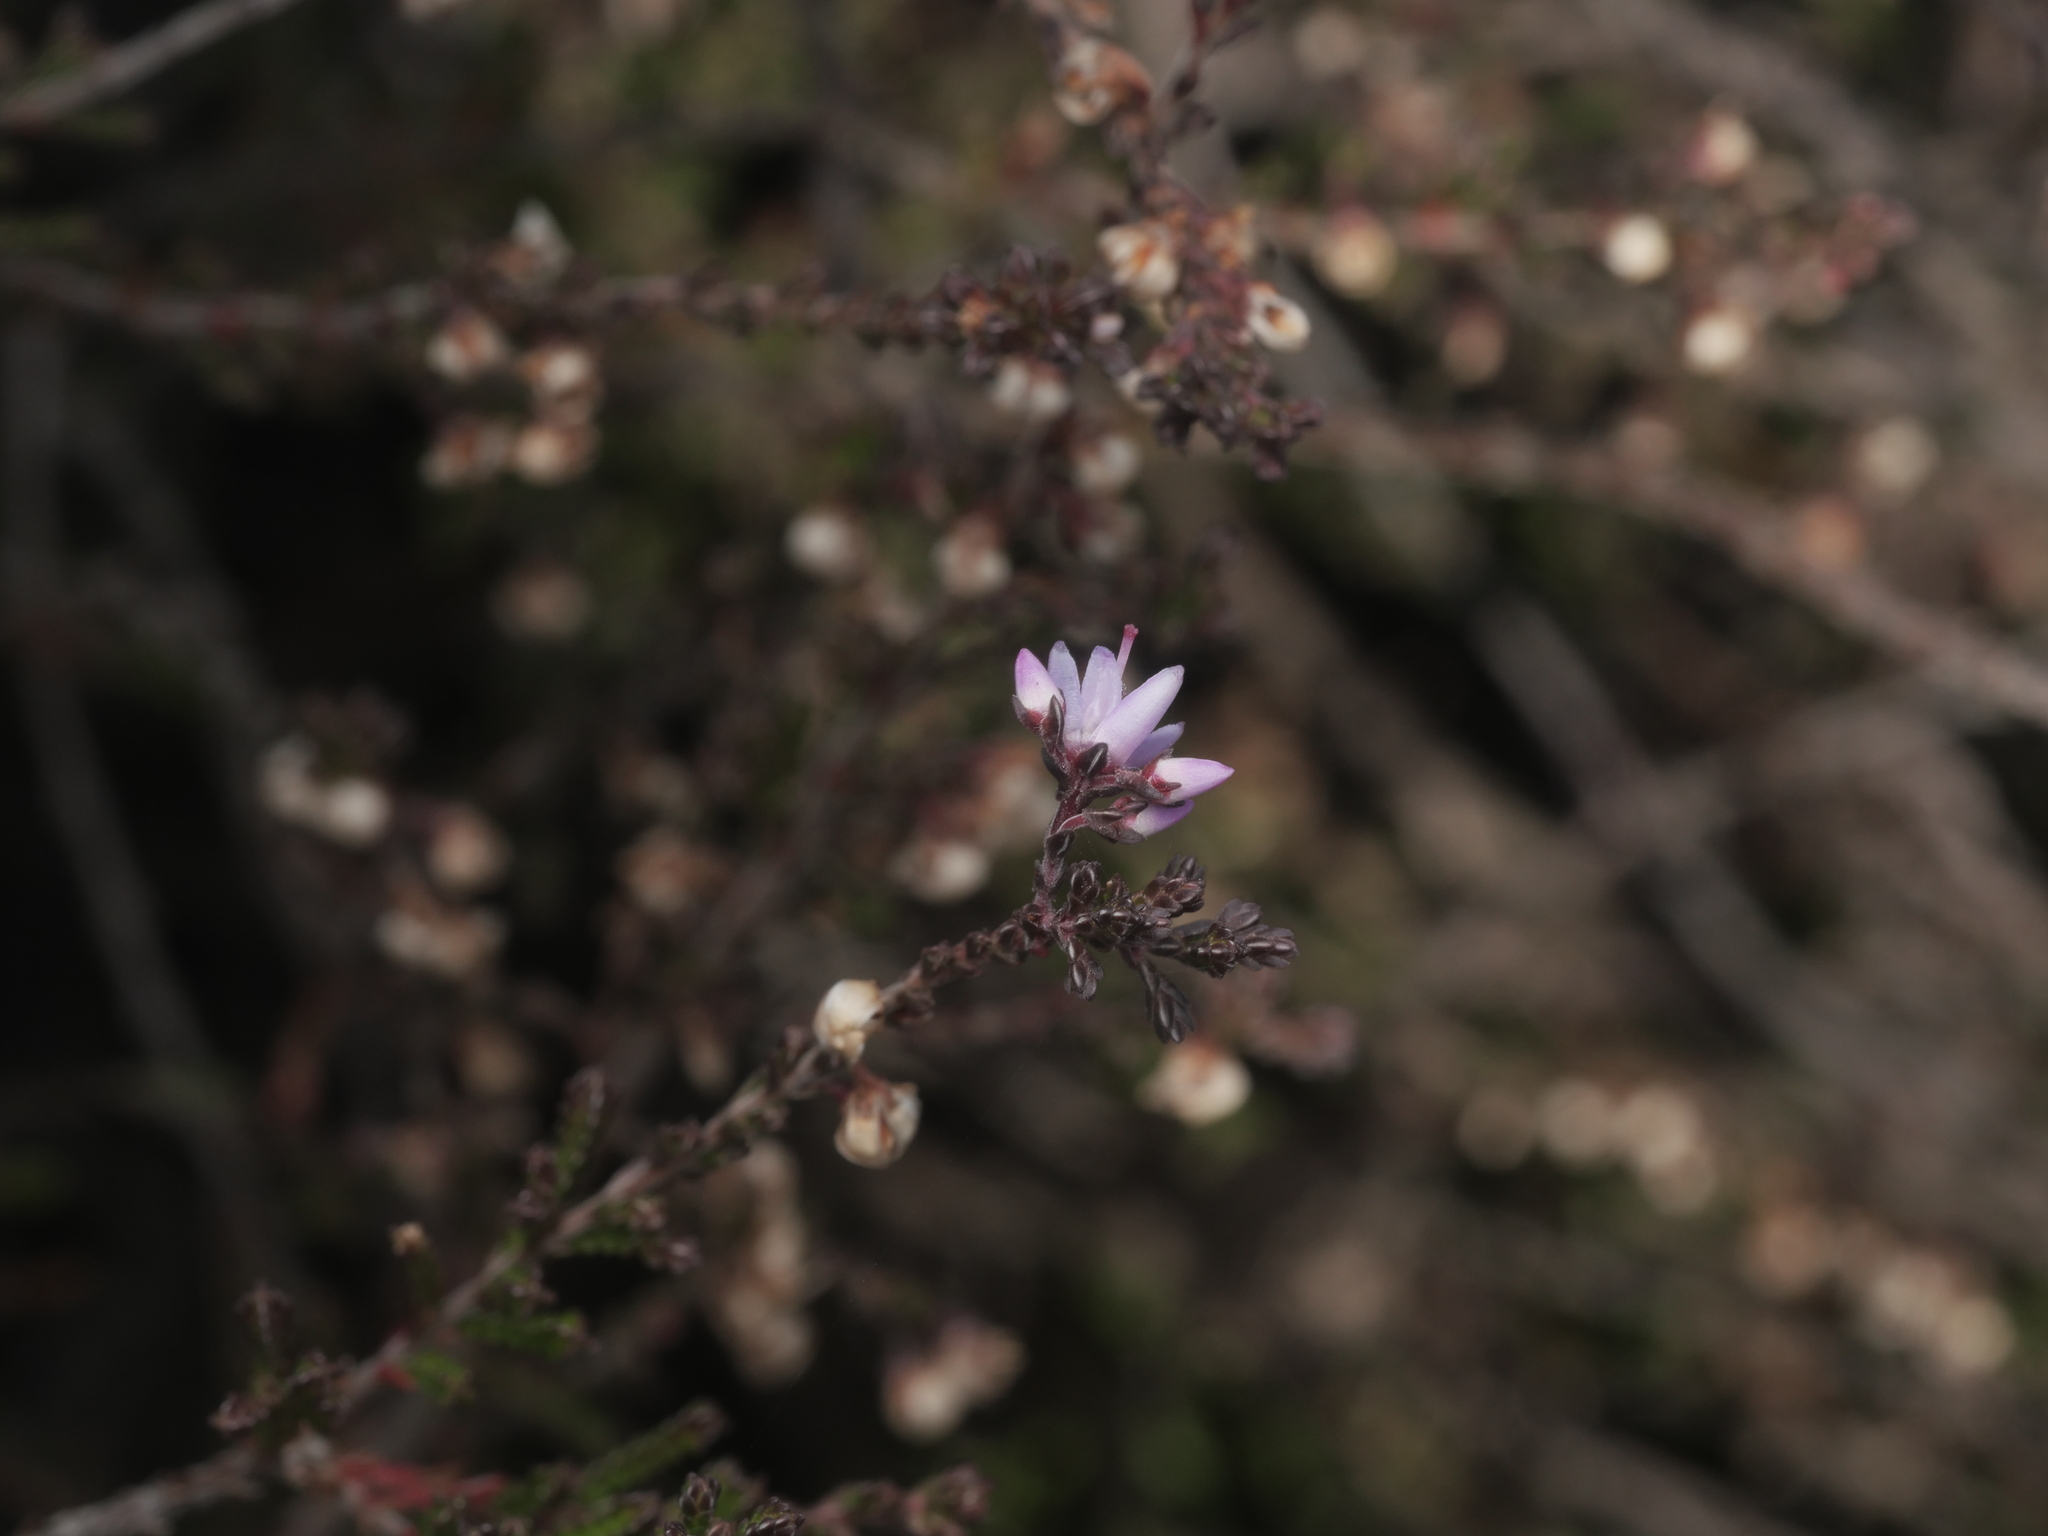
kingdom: Plantae
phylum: Tracheophyta
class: Magnoliopsida
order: Ericales
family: Ericaceae
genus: Calluna
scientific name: Calluna vulgaris
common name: Heather
